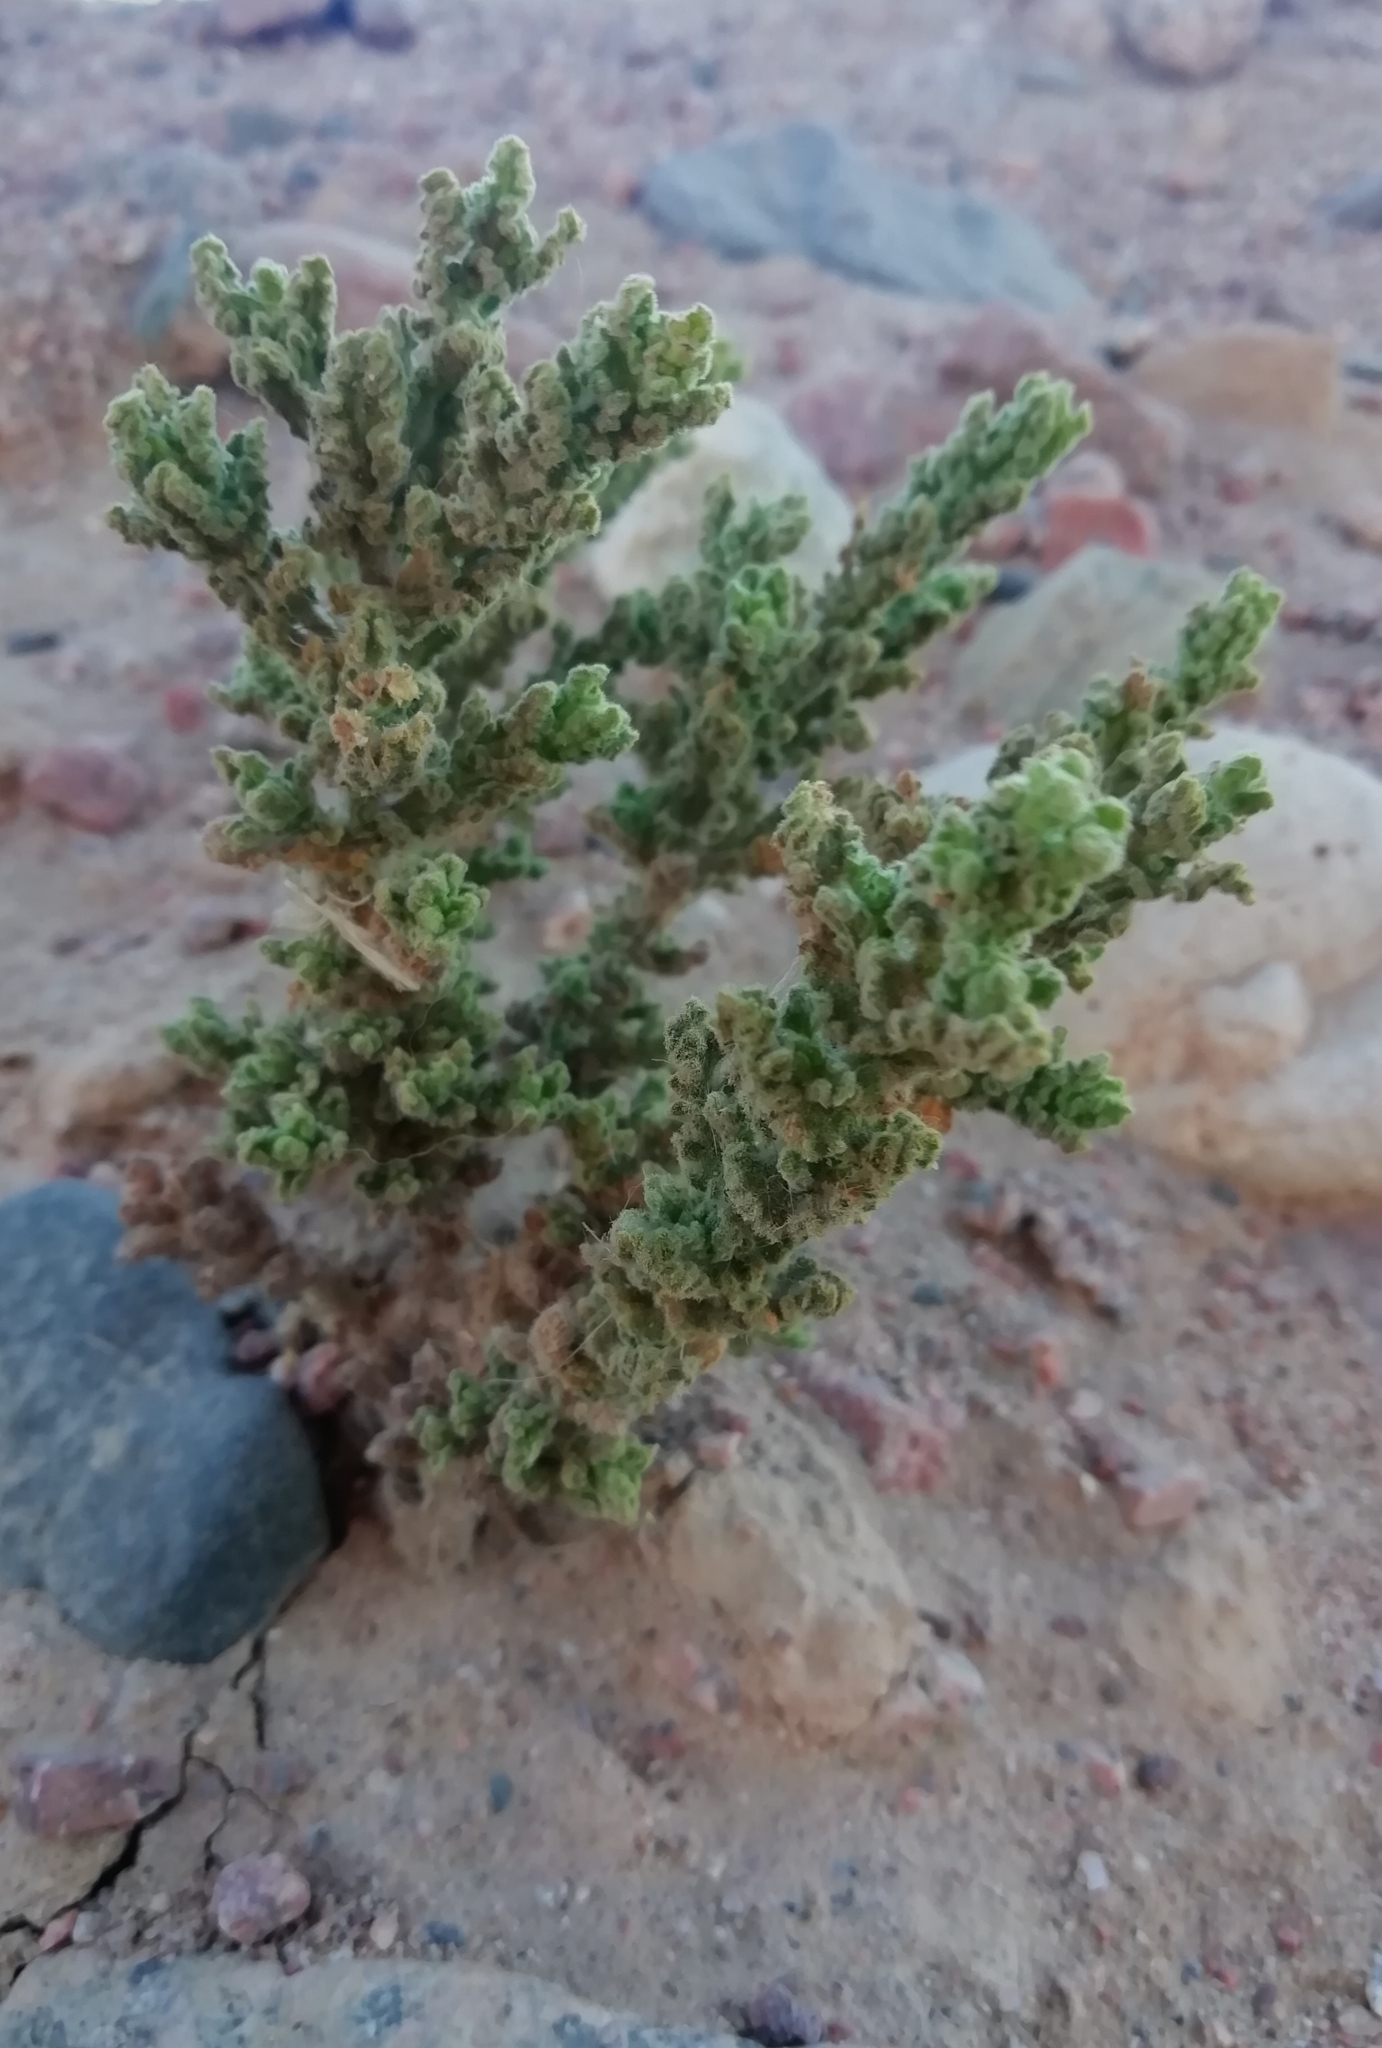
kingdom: Plantae
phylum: Tracheophyta
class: Magnoliopsida
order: Asterales
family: Asteraceae
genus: Pulicaria
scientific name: Pulicaria incisa
